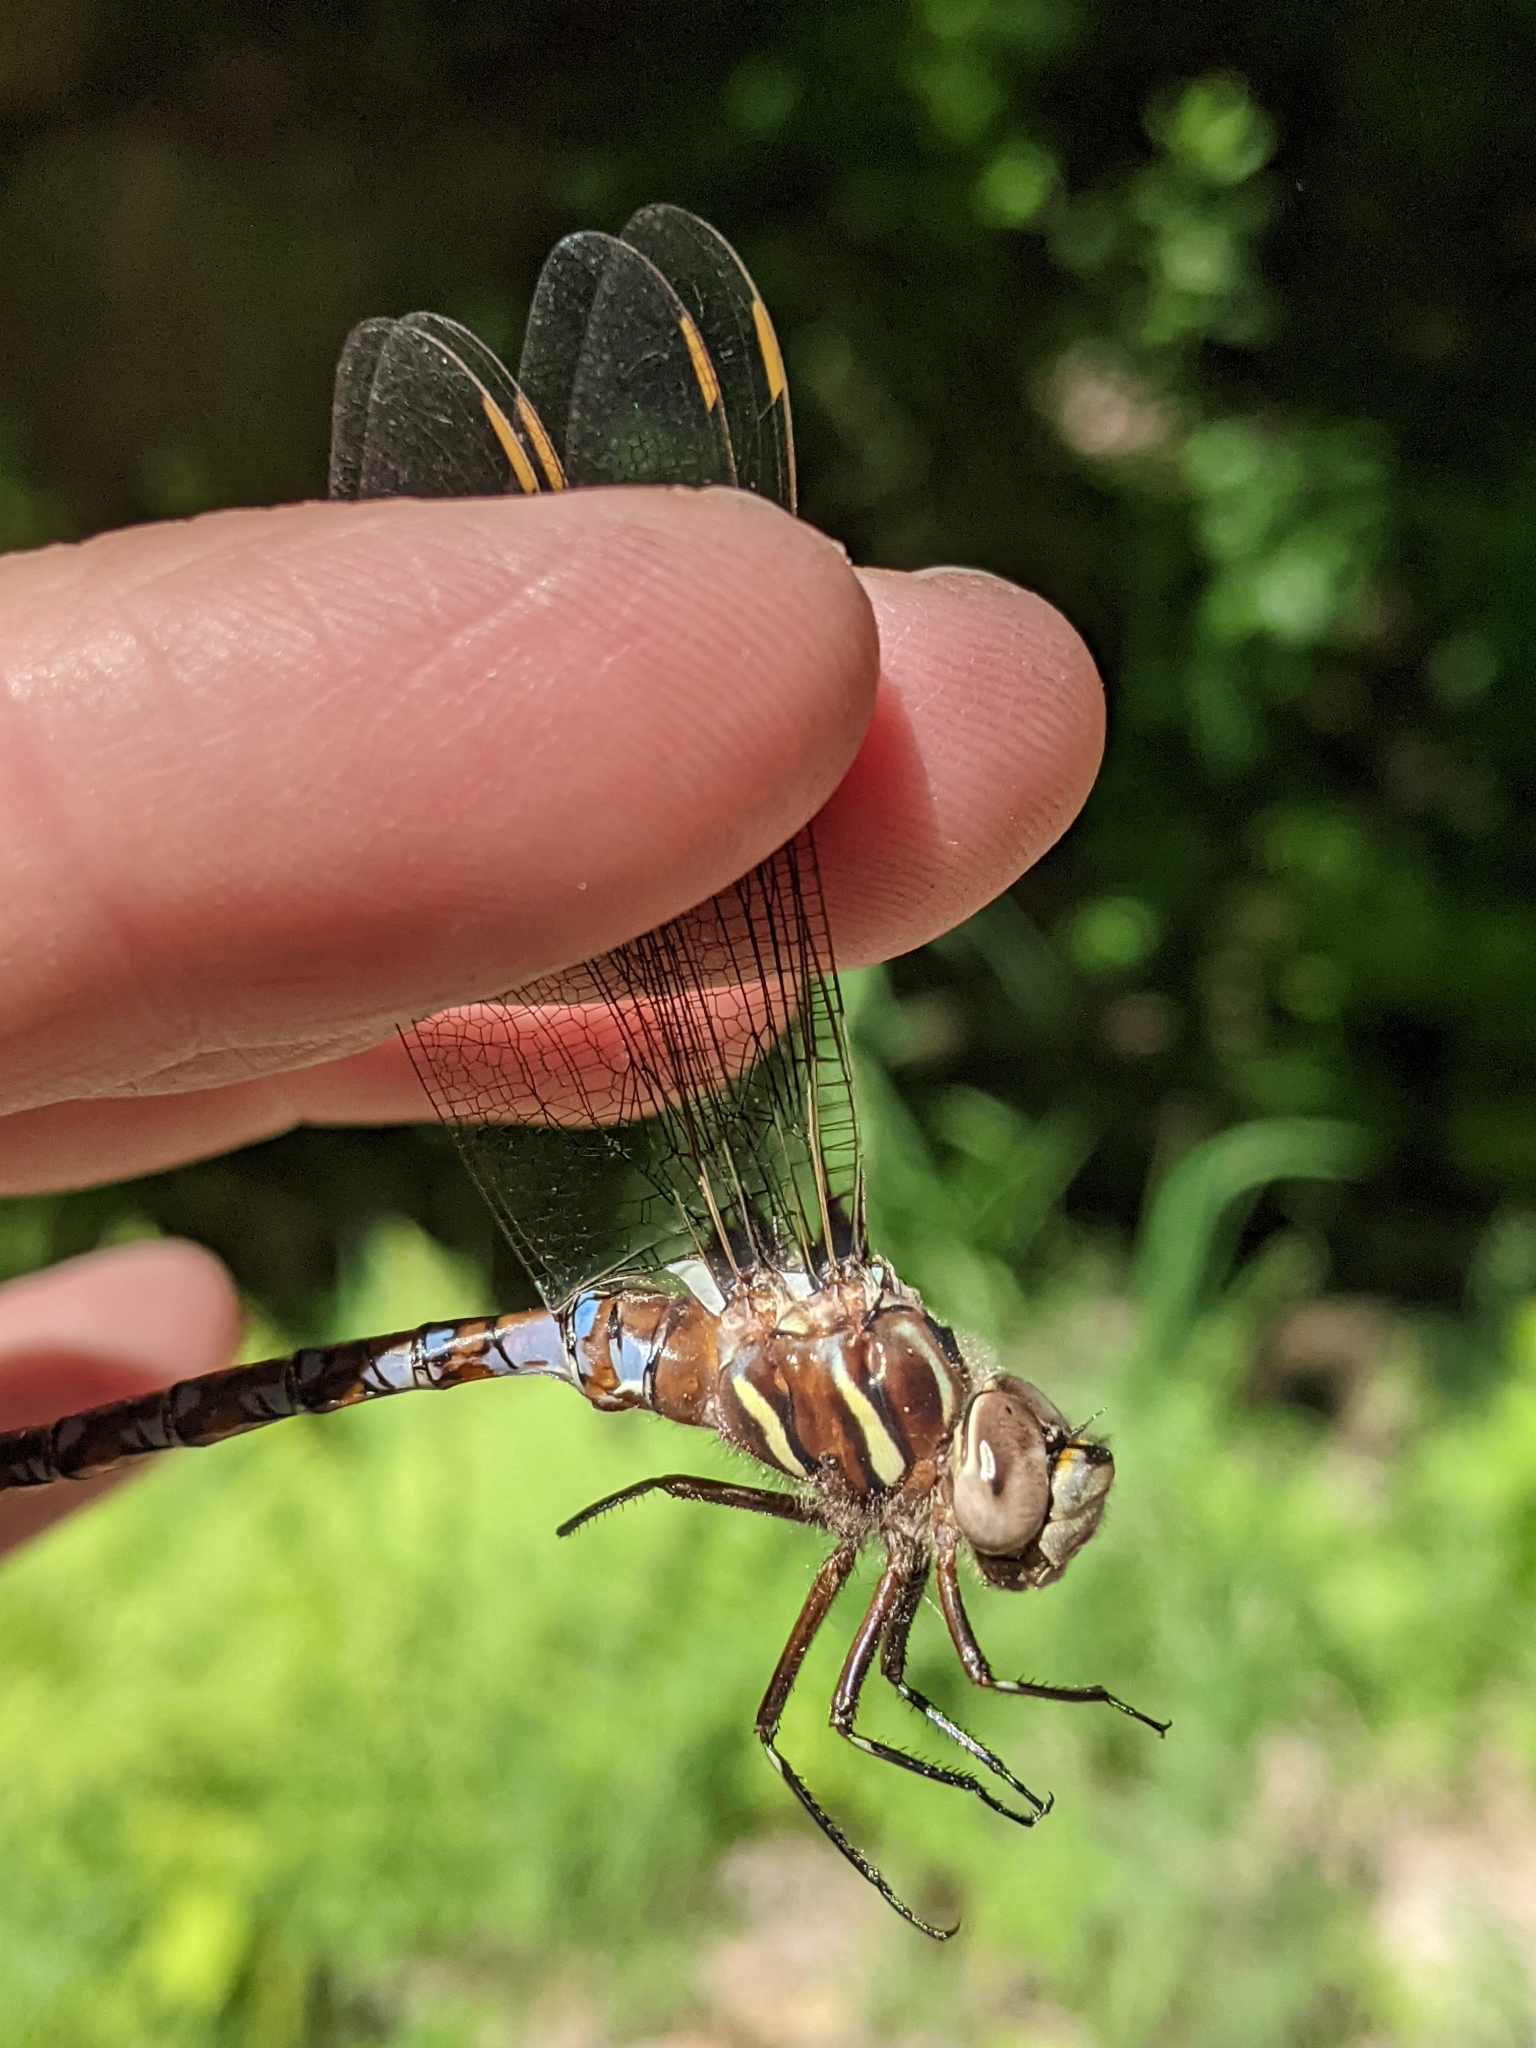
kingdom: Animalia
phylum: Arthropoda
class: Insecta
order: Odonata
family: Aeshnidae
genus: Basiaeschna
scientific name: Basiaeschna janata
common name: Springtime darner
